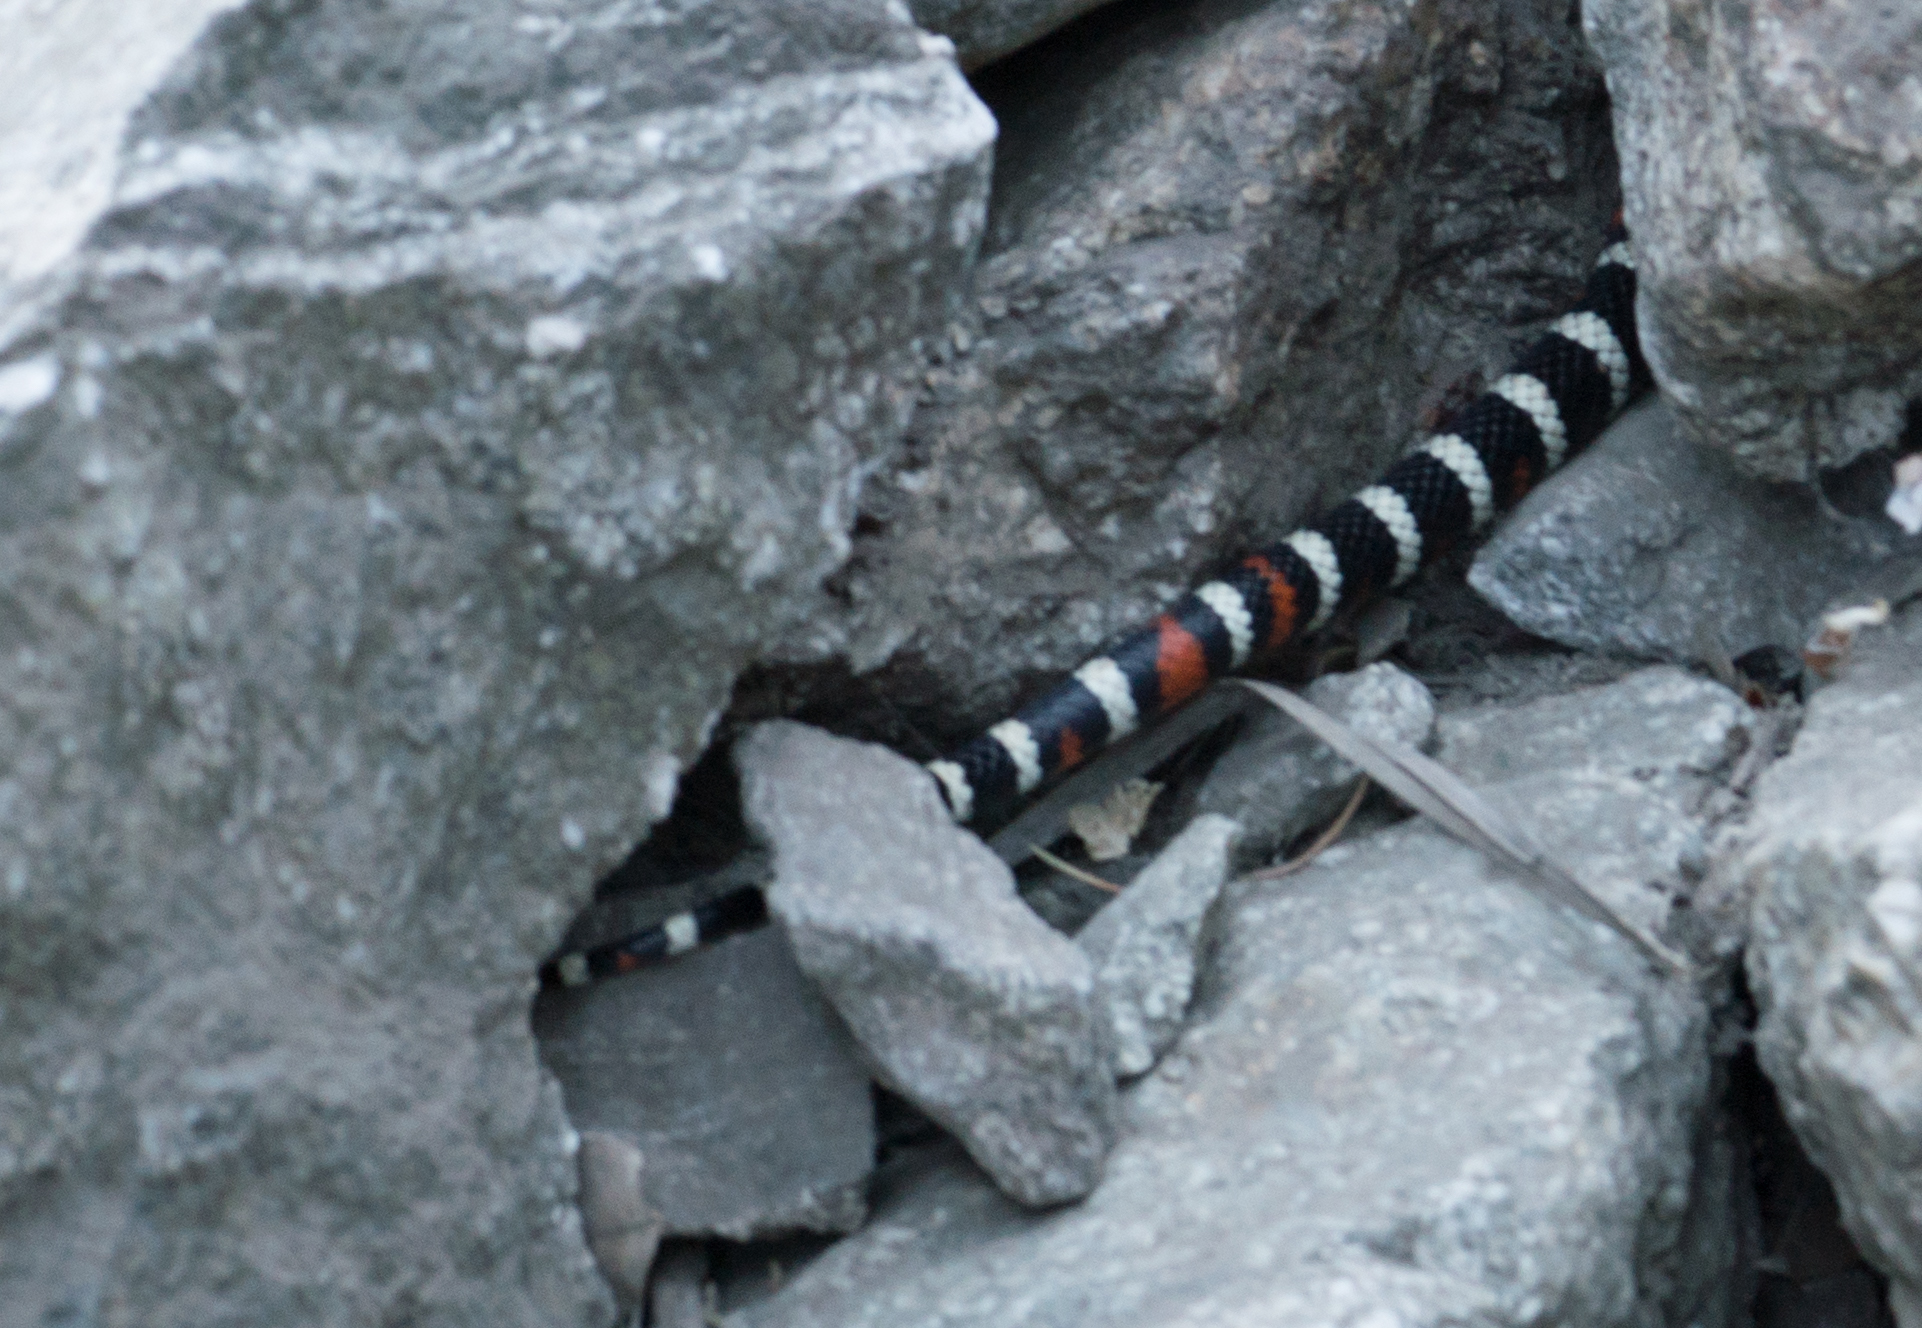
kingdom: Animalia
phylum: Chordata
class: Squamata
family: Colubridae
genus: Lampropeltis
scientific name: Lampropeltis zonata
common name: California mountain kingsnake
